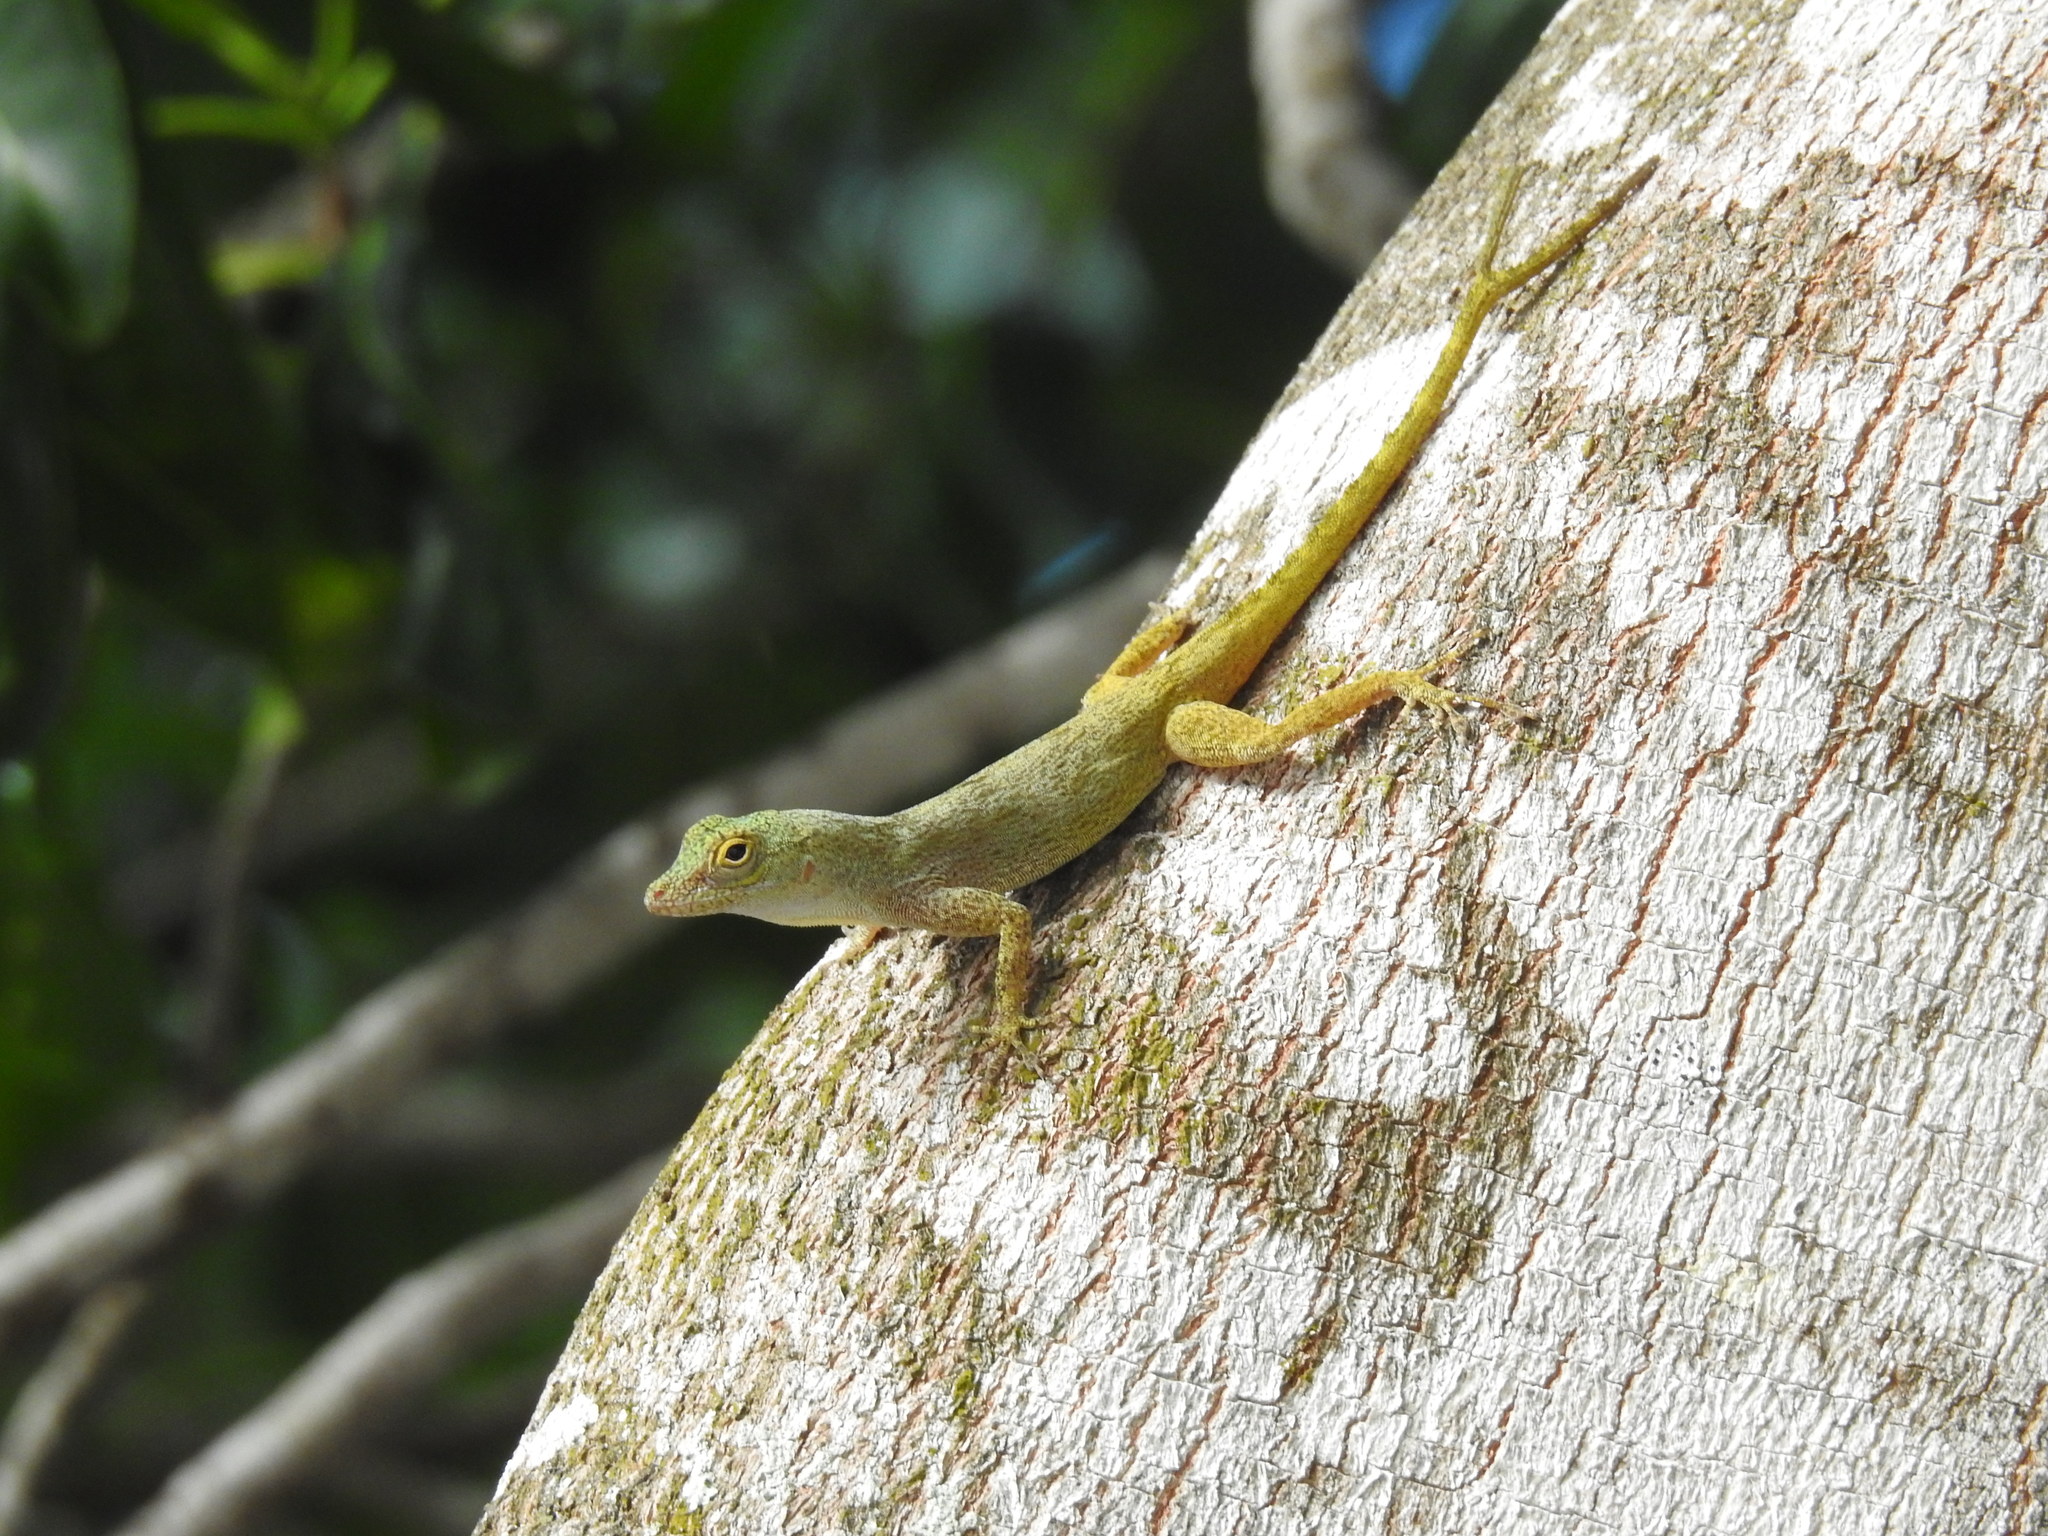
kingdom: Animalia
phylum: Chordata
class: Squamata
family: Dactyloidae
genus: Anolis
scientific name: Anolis distichus
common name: Bark anole
